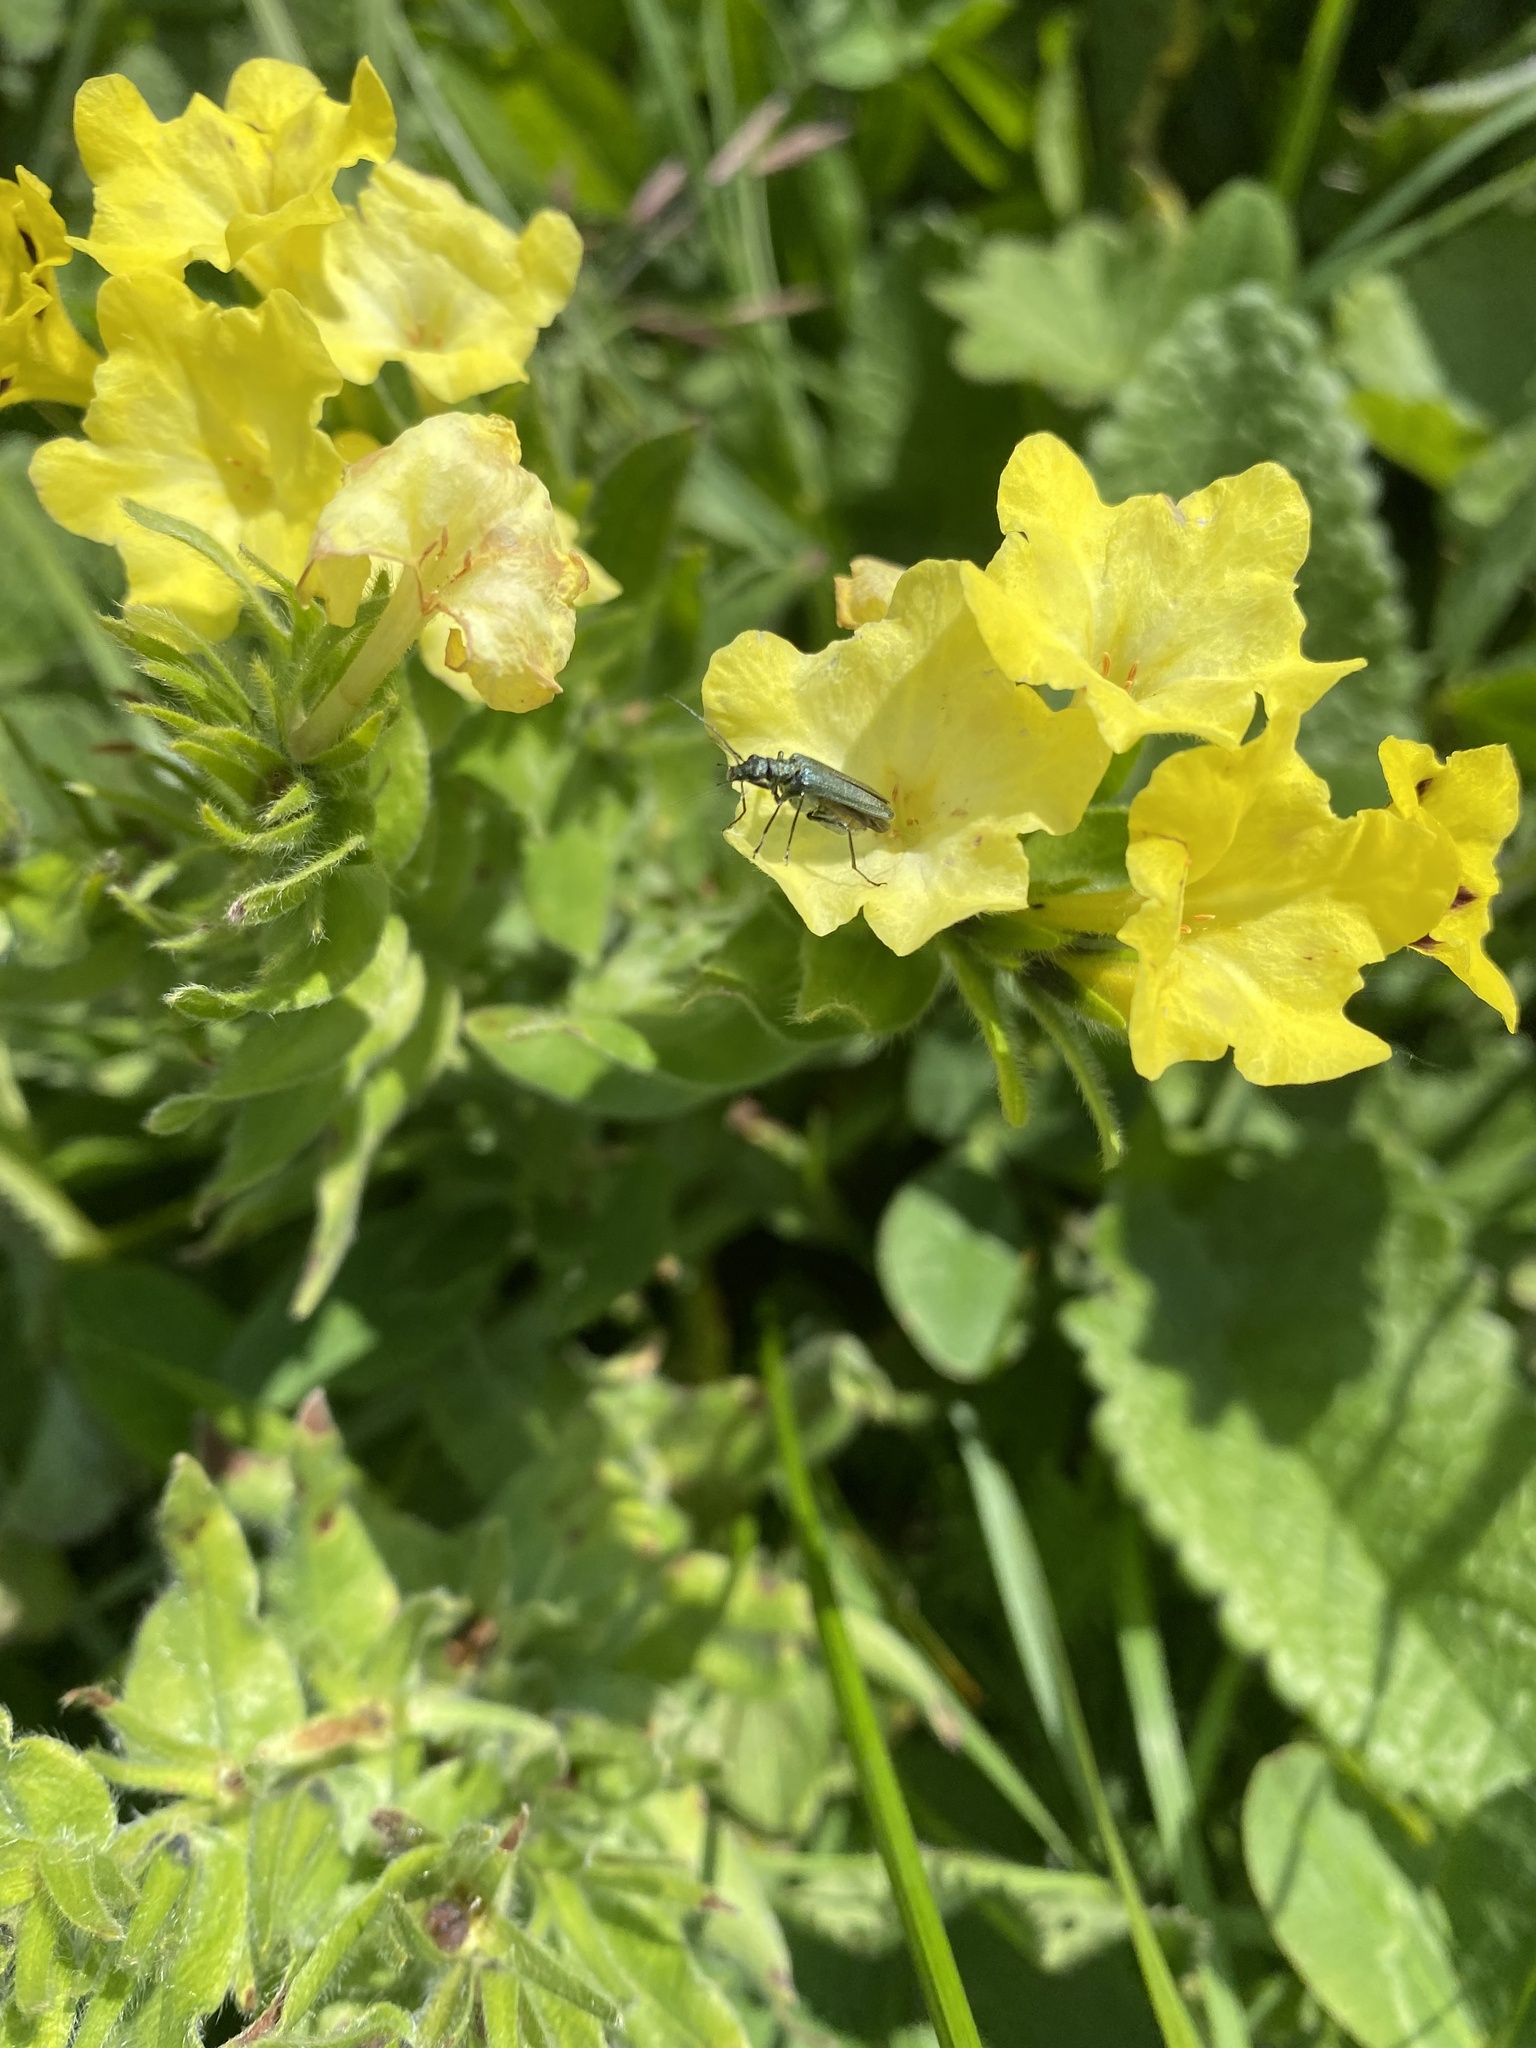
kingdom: Plantae
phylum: Tracheophyta
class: Magnoliopsida
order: Boraginales
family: Boraginaceae
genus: Huynhia
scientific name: Huynhia pulchra
